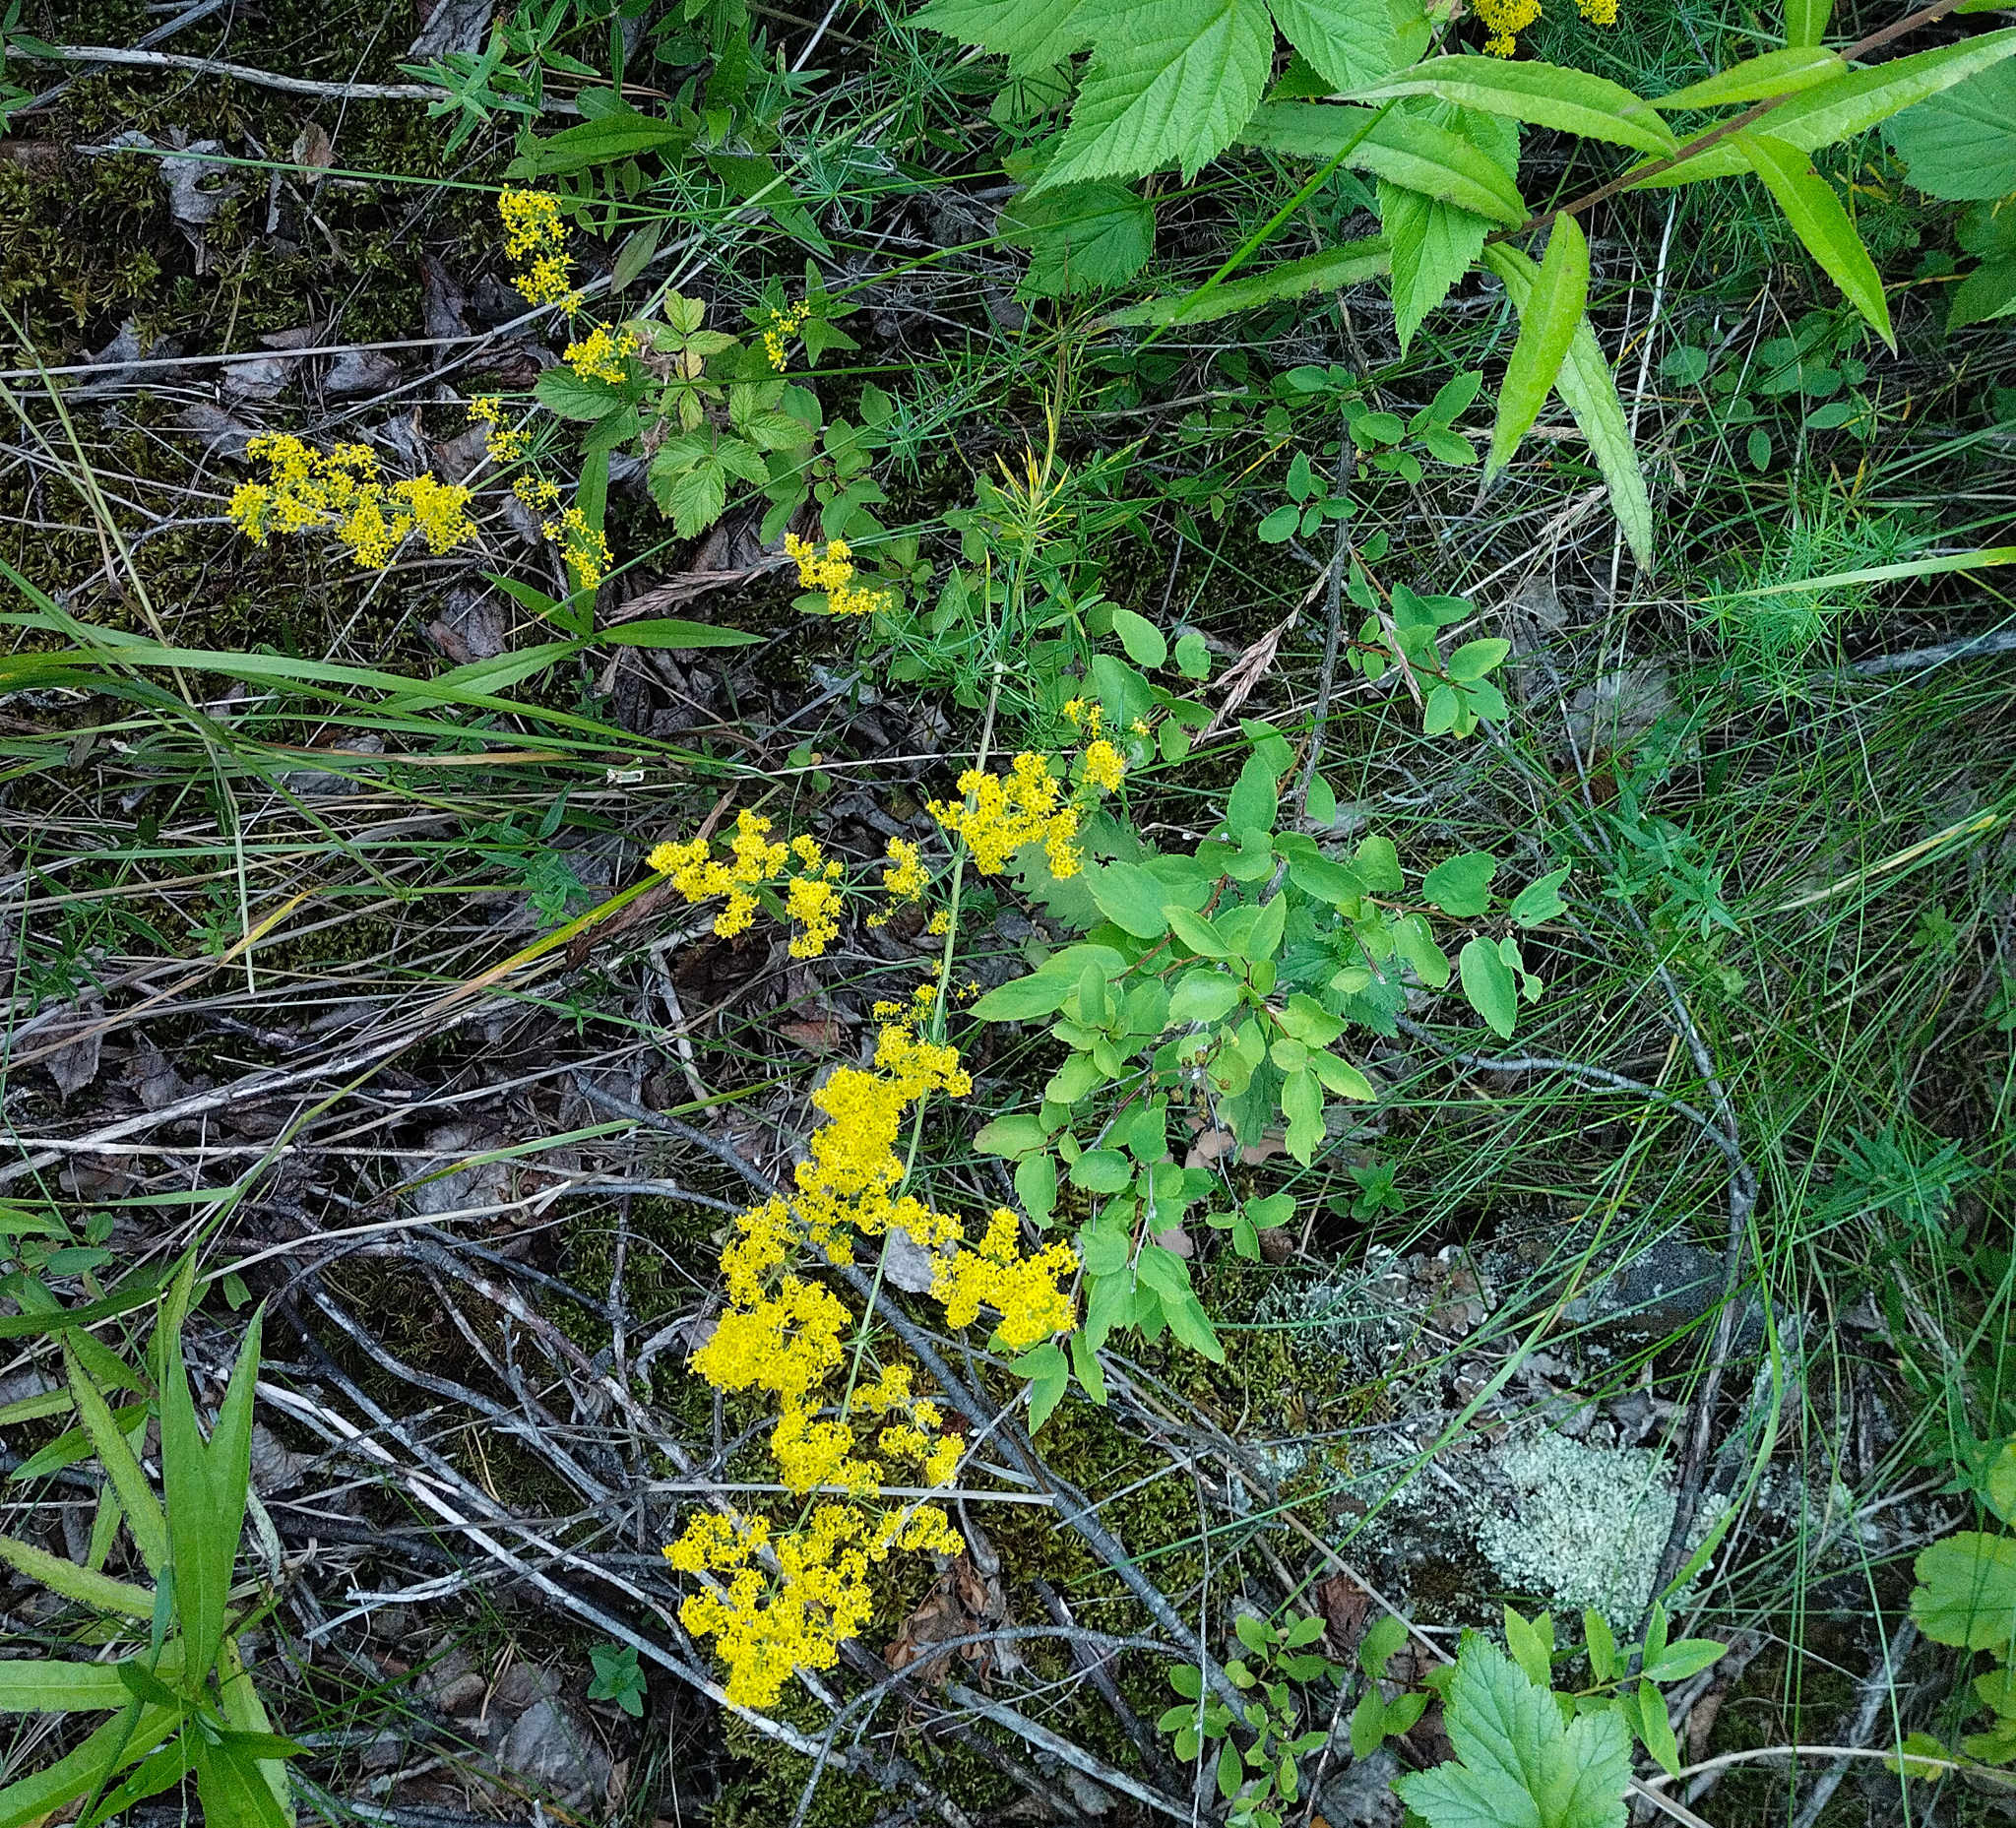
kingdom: Plantae
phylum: Tracheophyta
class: Magnoliopsida
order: Gentianales
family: Rubiaceae
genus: Galium
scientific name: Galium verum
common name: Lady's bedstraw
